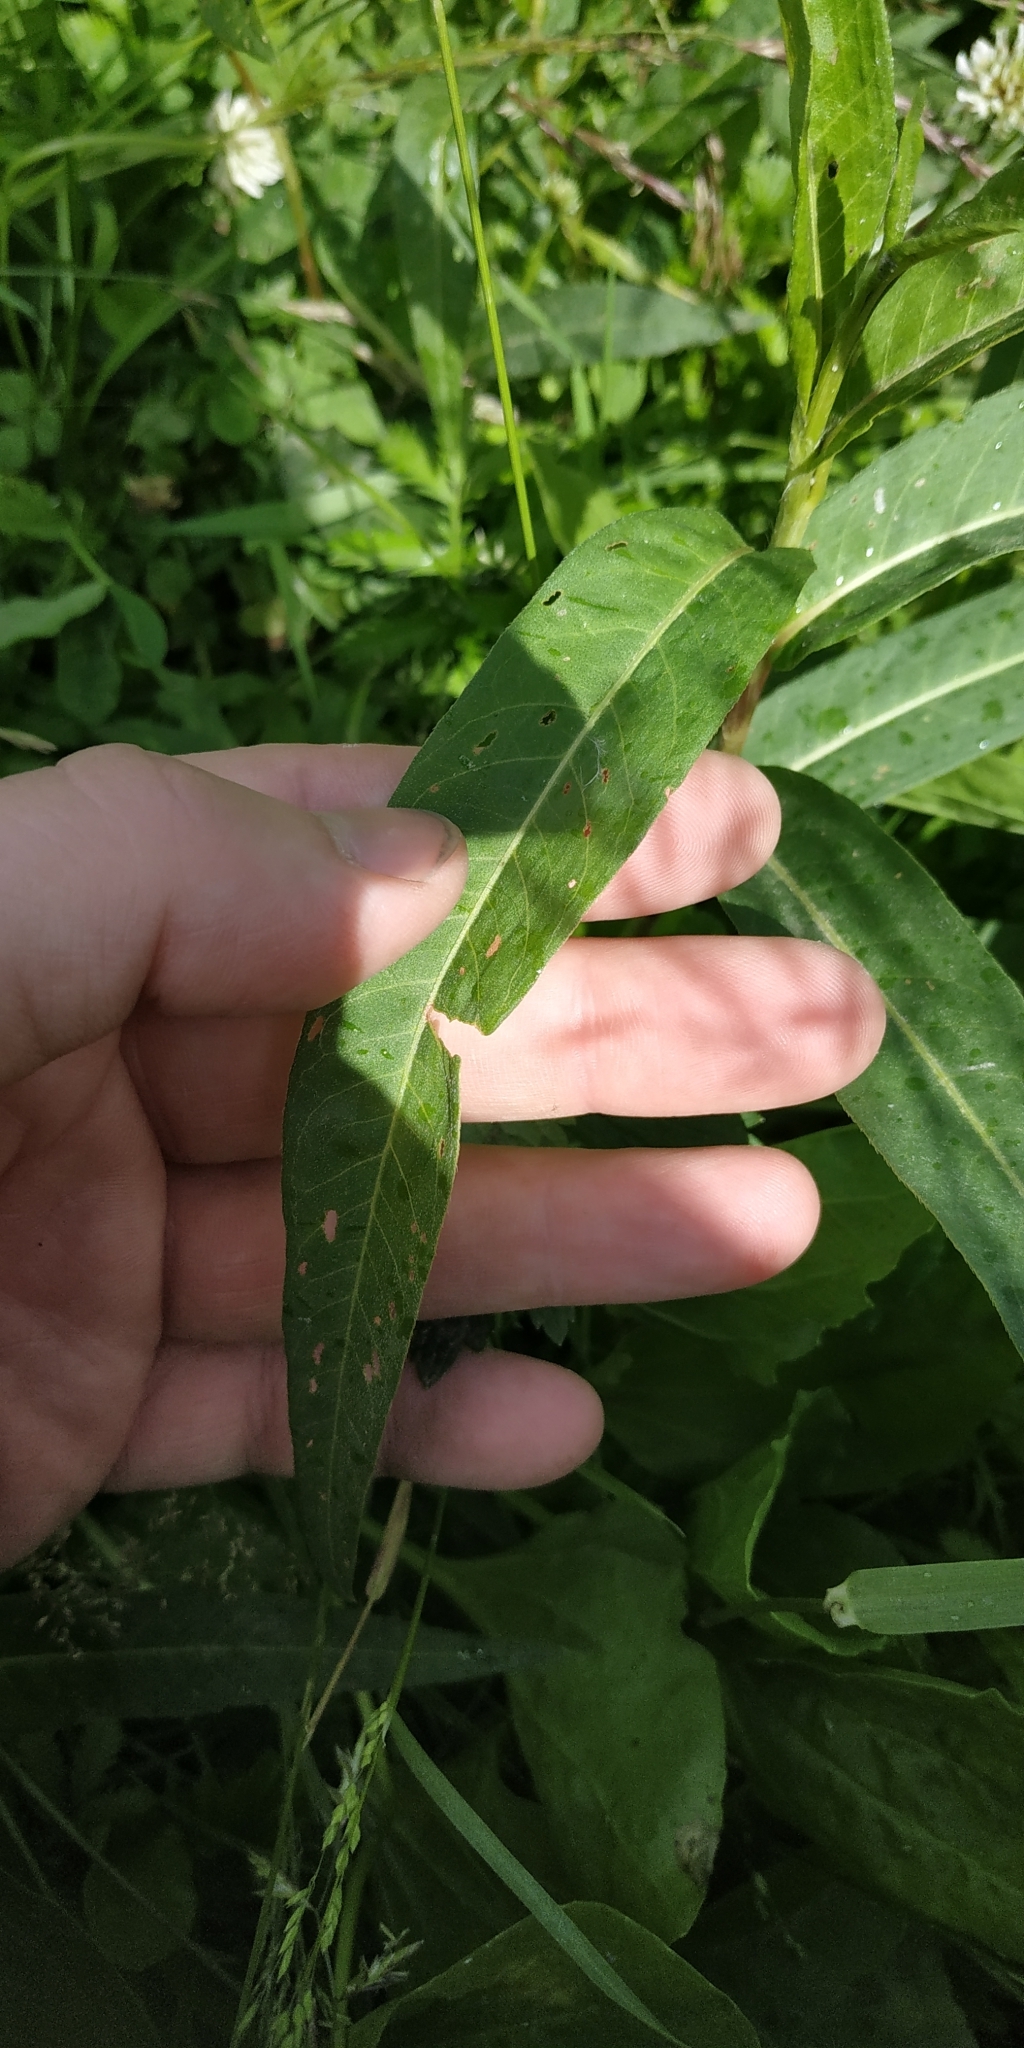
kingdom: Plantae
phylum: Tracheophyta
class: Magnoliopsida
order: Caryophyllales
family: Polygonaceae
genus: Persicaria
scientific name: Persicaria amphibia
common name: Amphibious bistort
